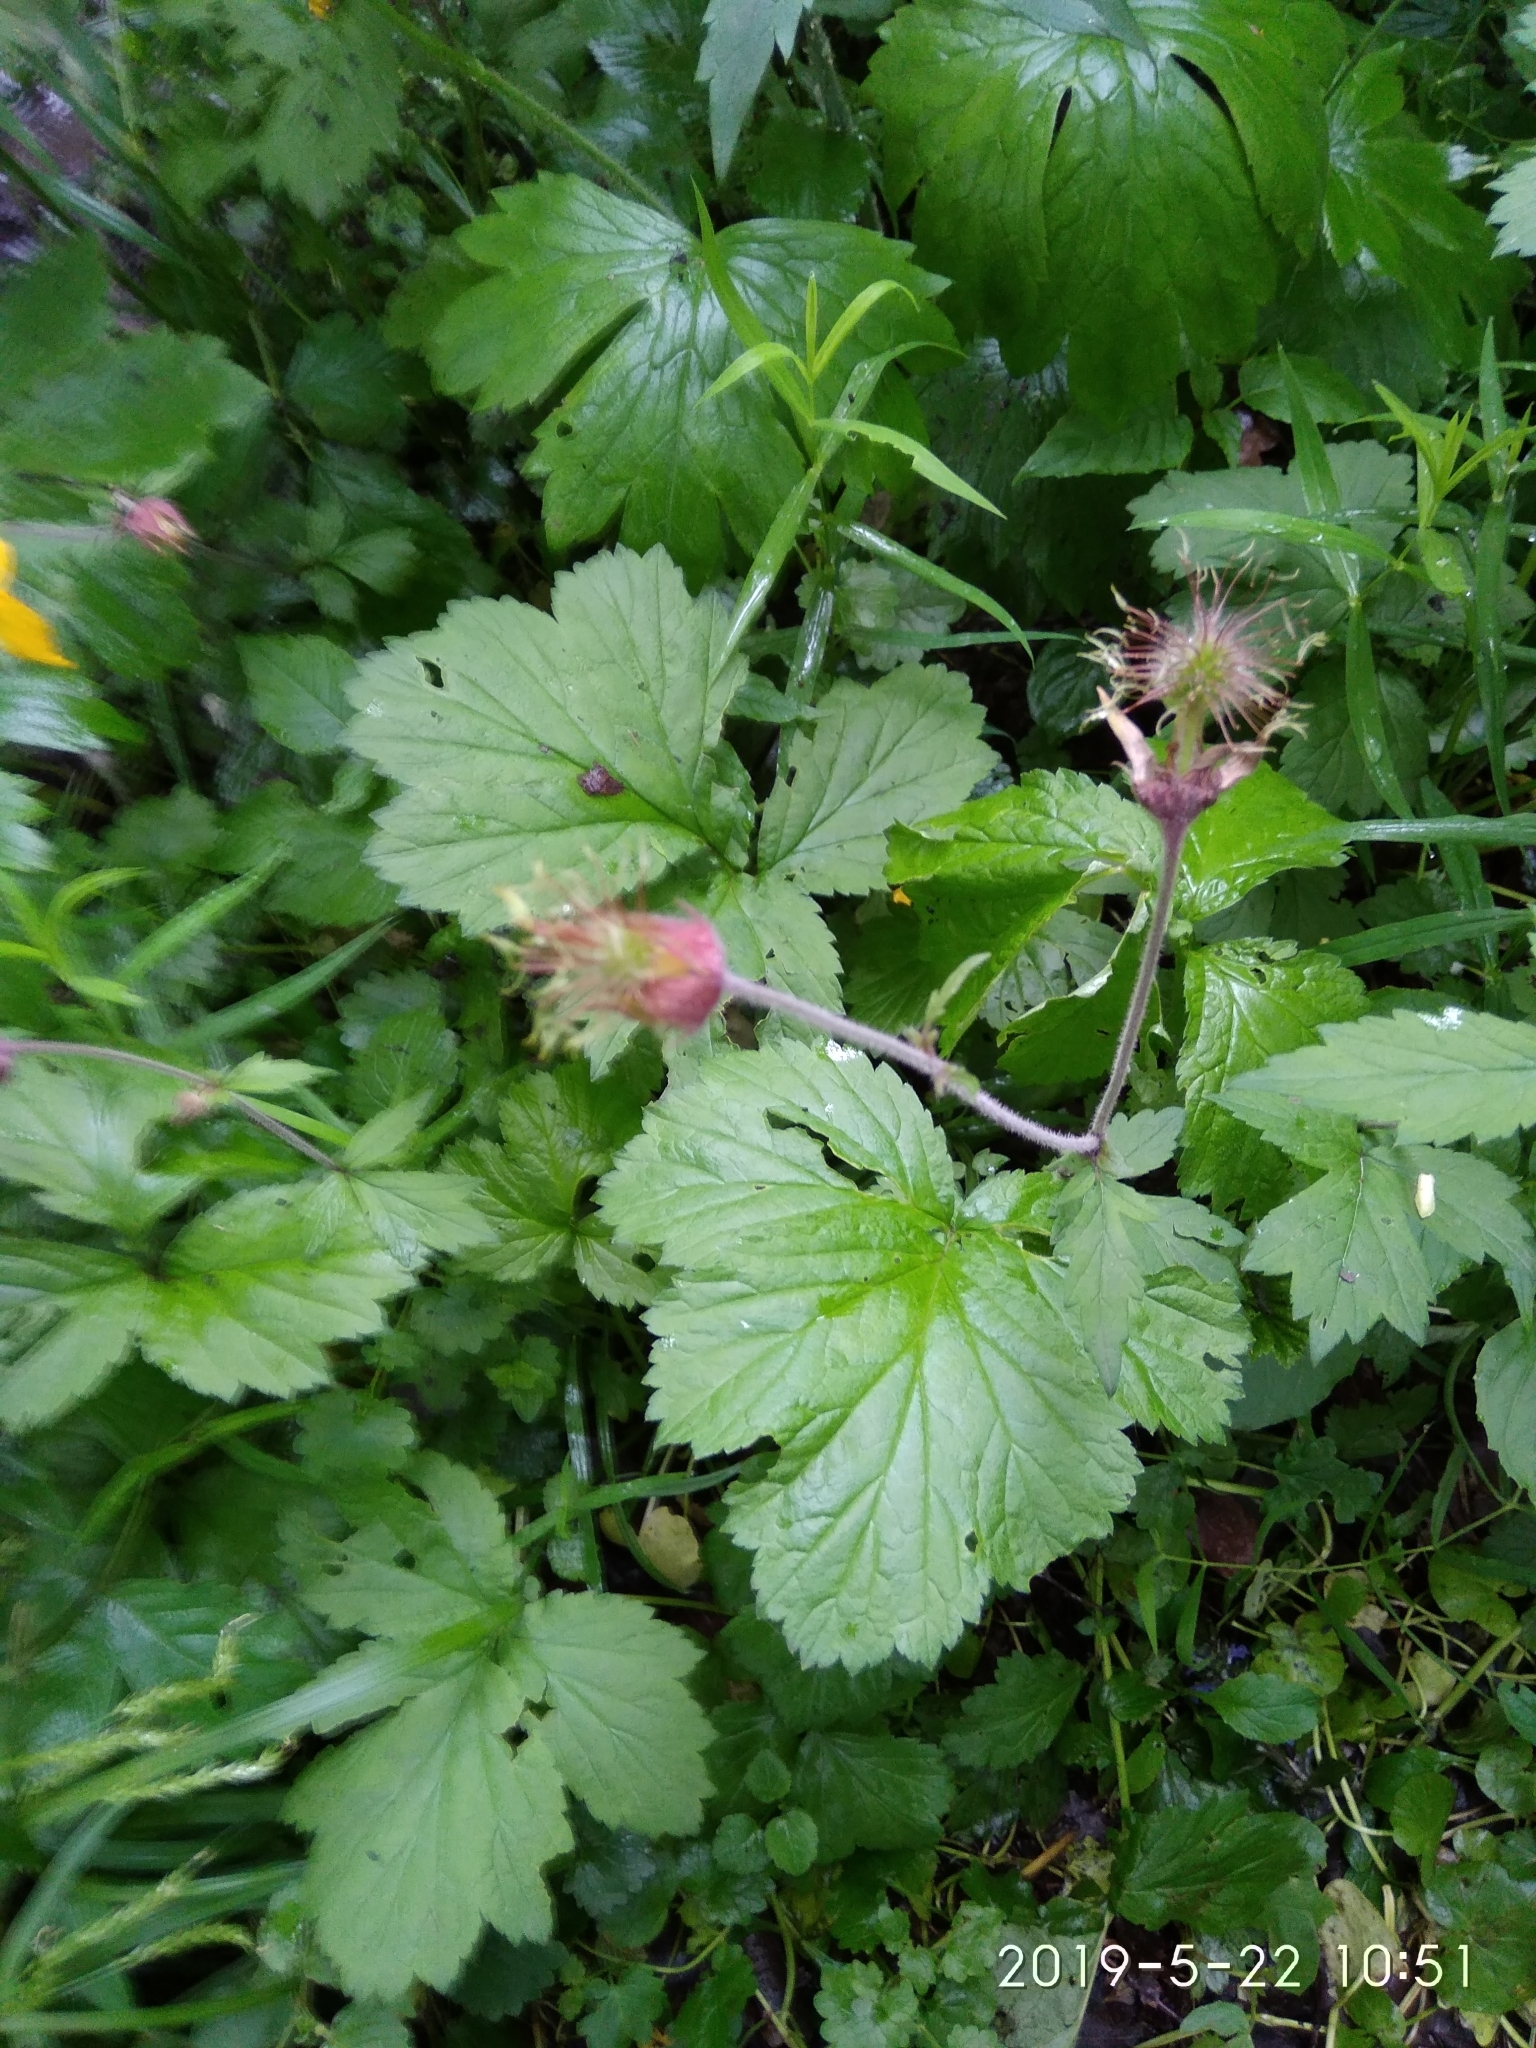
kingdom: Plantae
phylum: Tracheophyta
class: Magnoliopsida
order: Rosales
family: Rosaceae
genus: Geum
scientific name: Geum rivale
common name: Water avens
